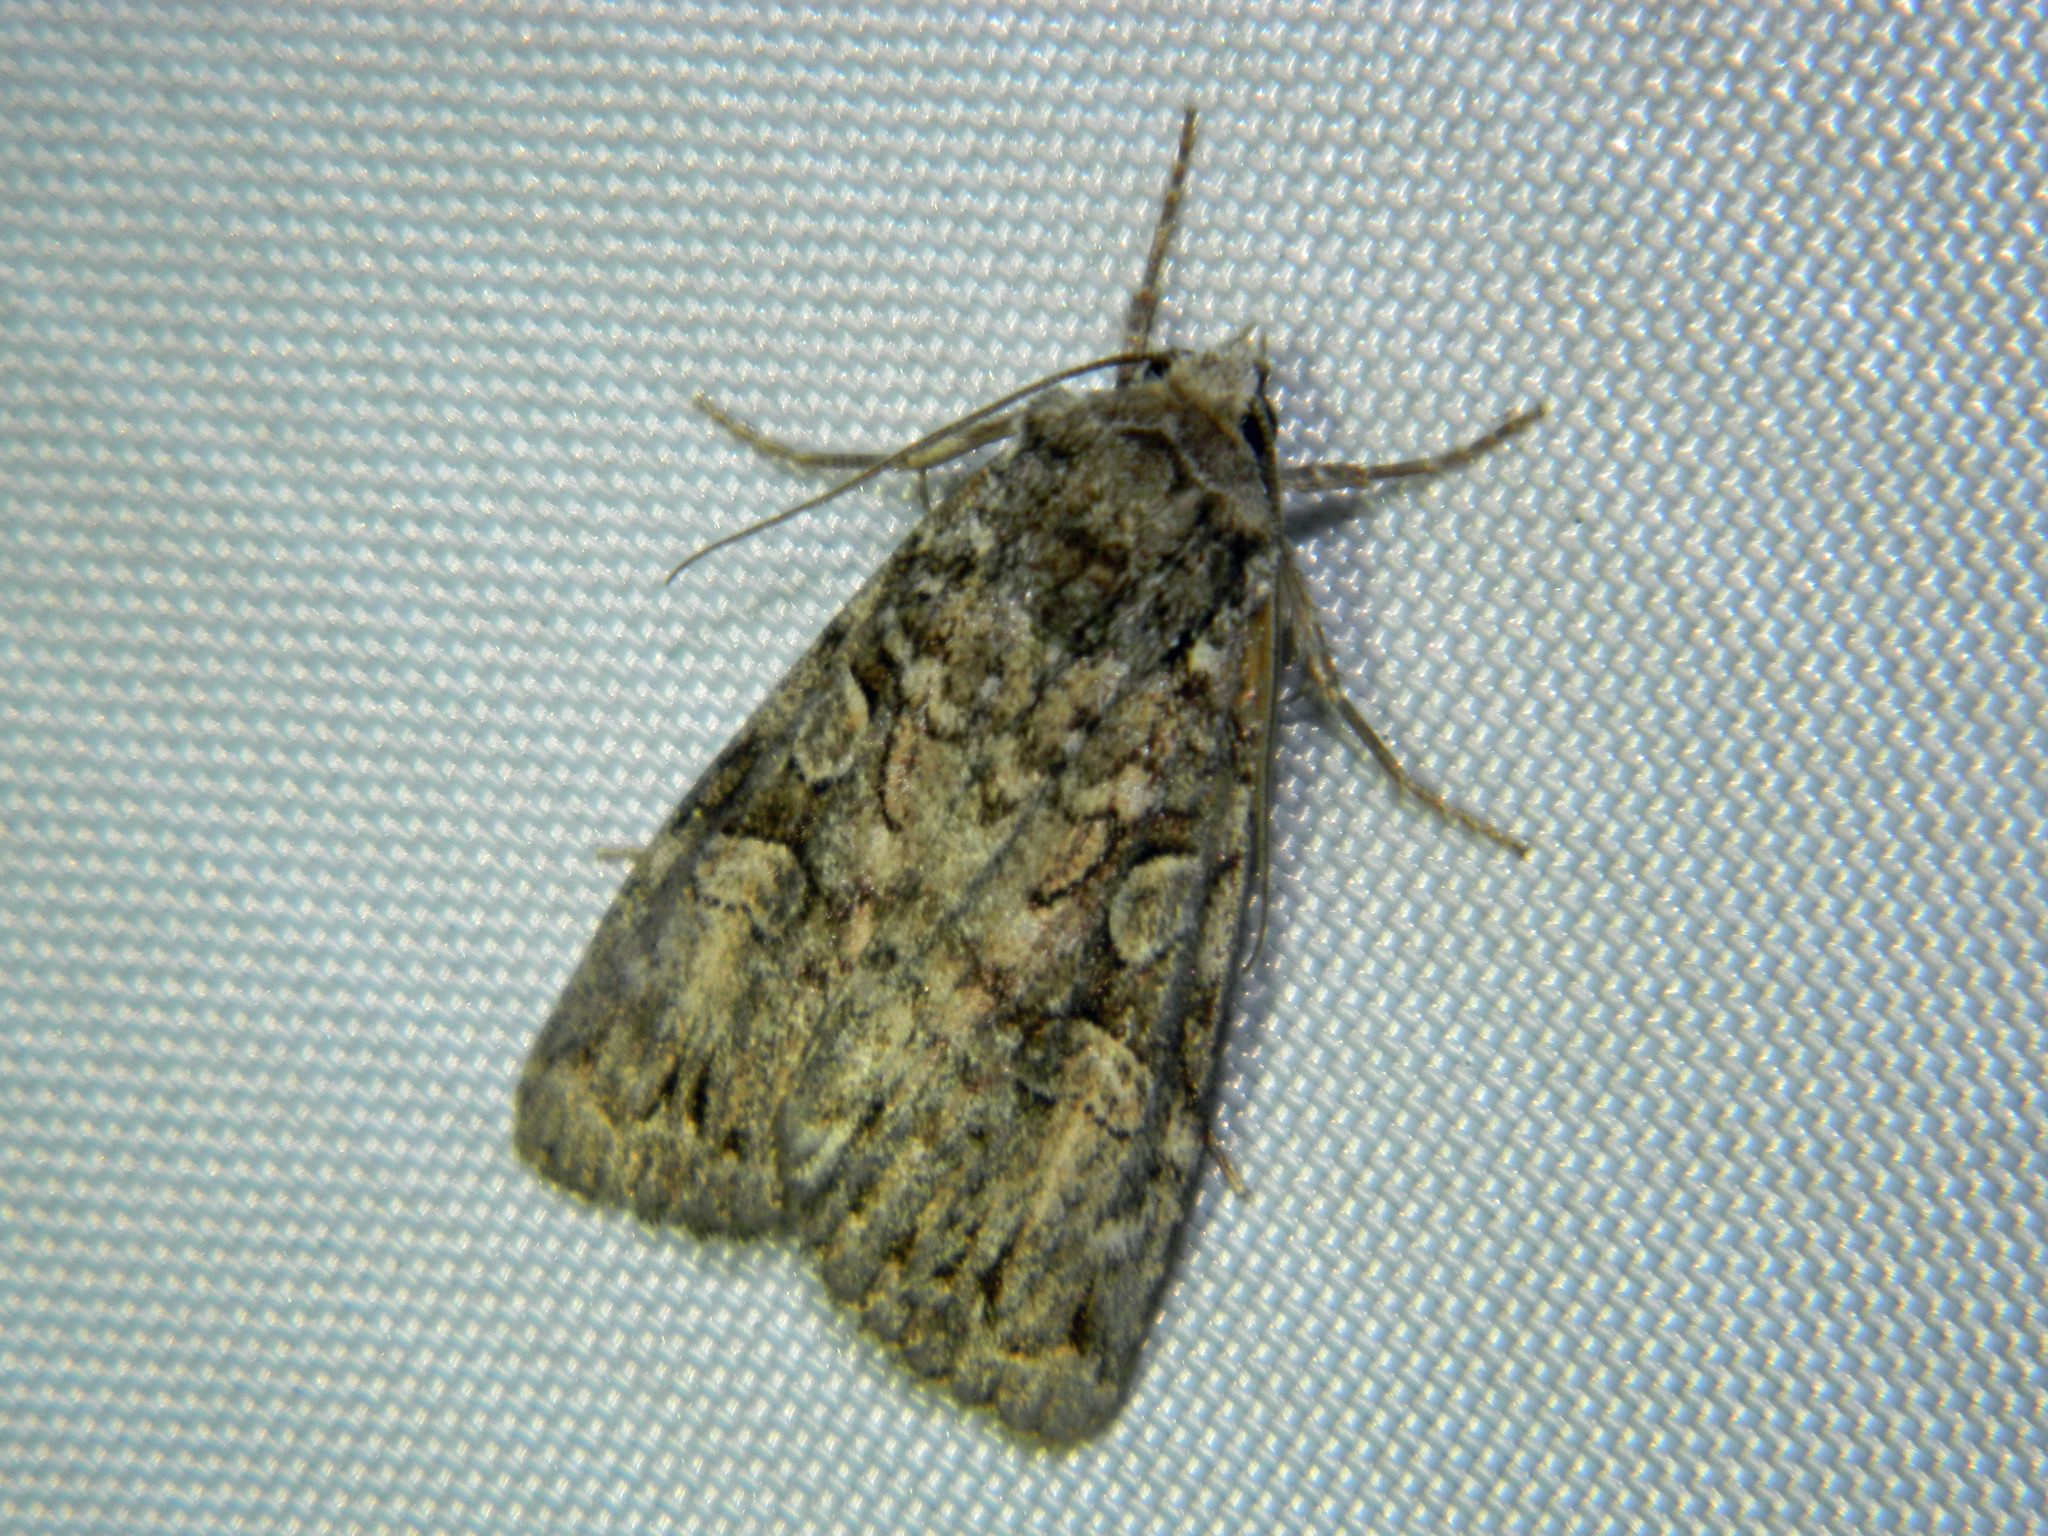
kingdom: Animalia
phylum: Arthropoda
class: Insecta
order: Lepidoptera
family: Noctuidae
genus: Anaplectoides
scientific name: Anaplectoides pressus
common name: Dappled dart
